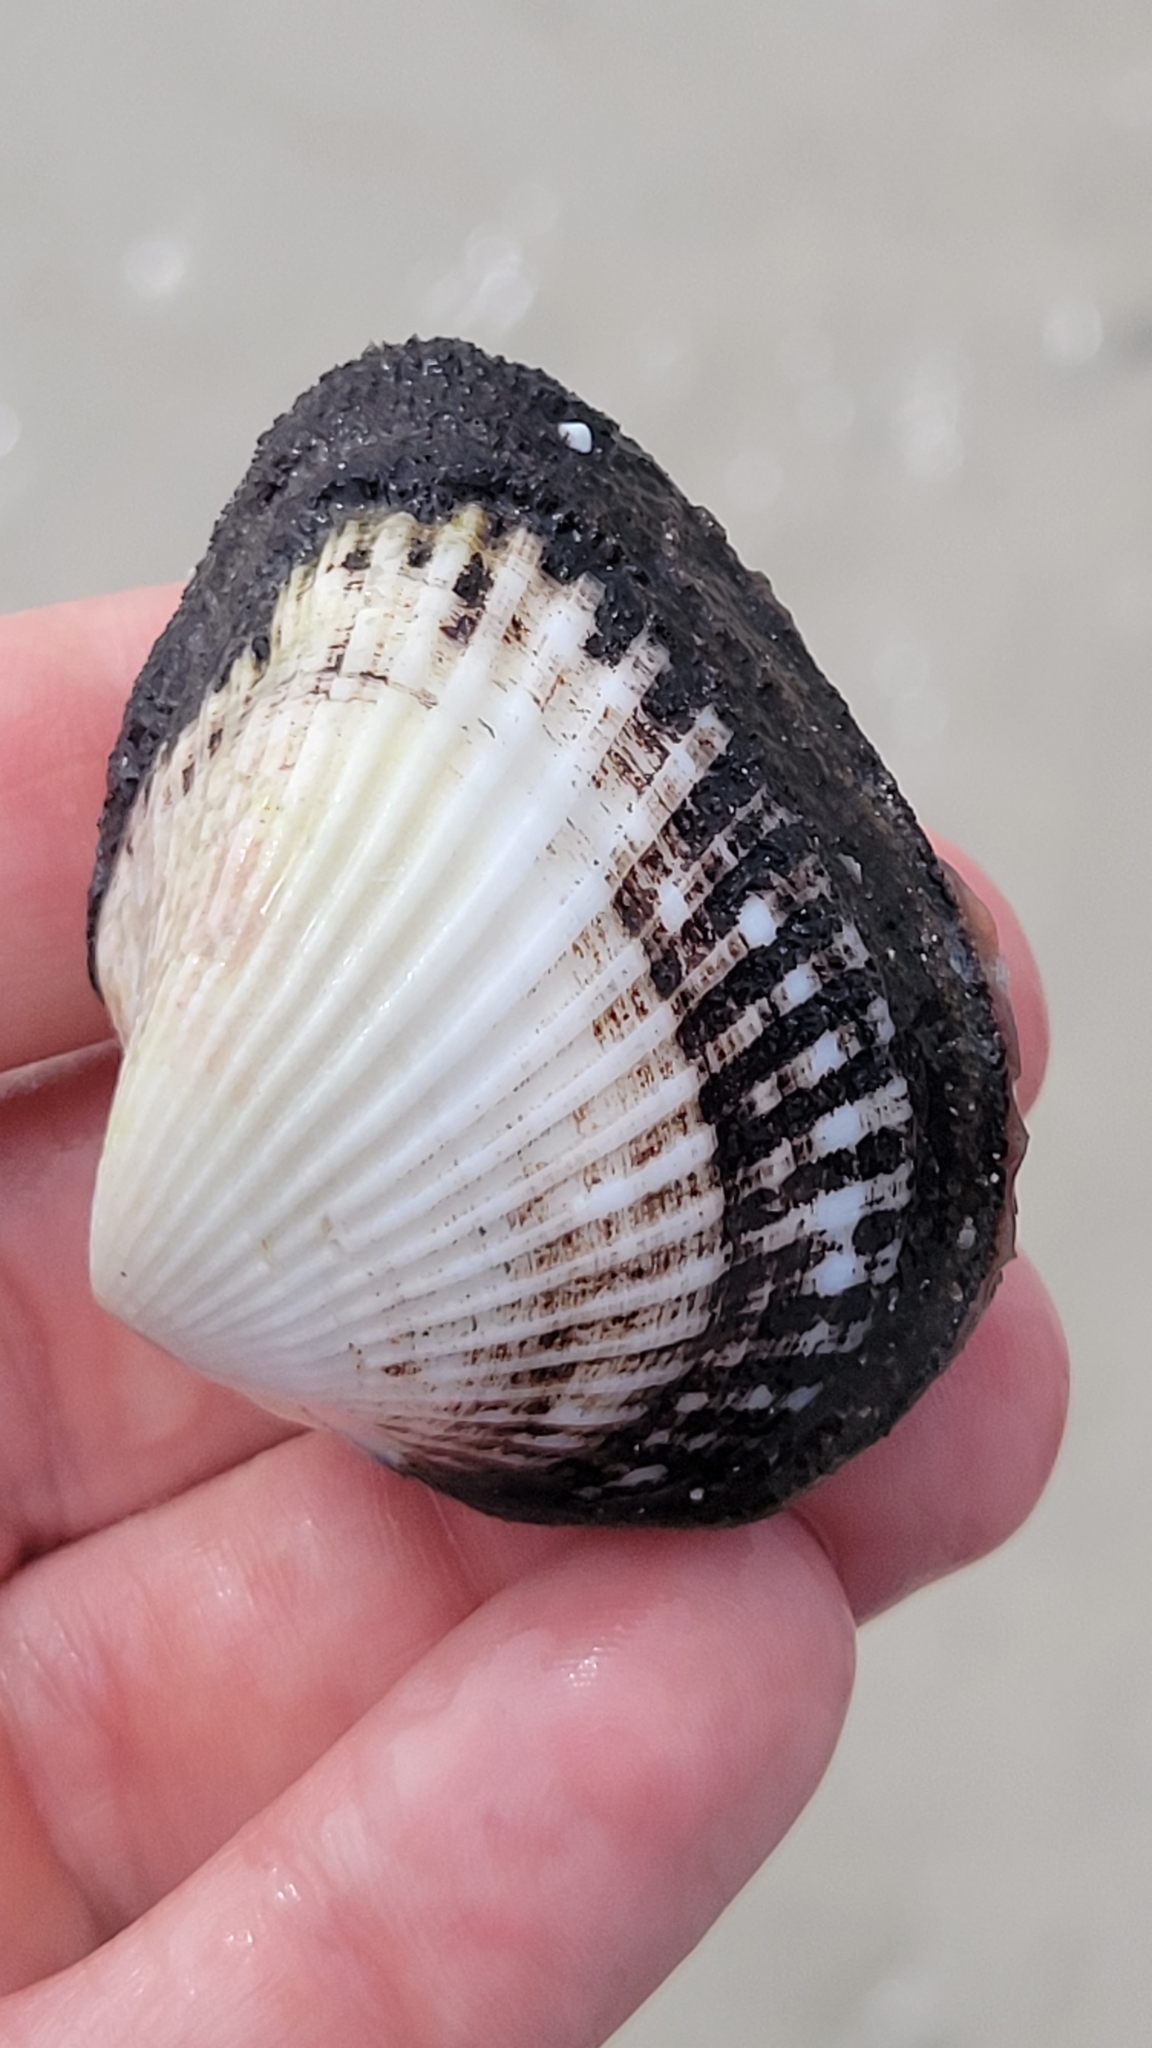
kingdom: Animalia
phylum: Mollusca
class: Bivalvia
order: Arcida
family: Noetiidae
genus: Noetia
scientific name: Noetia ponderosa
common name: Ponderous ark
